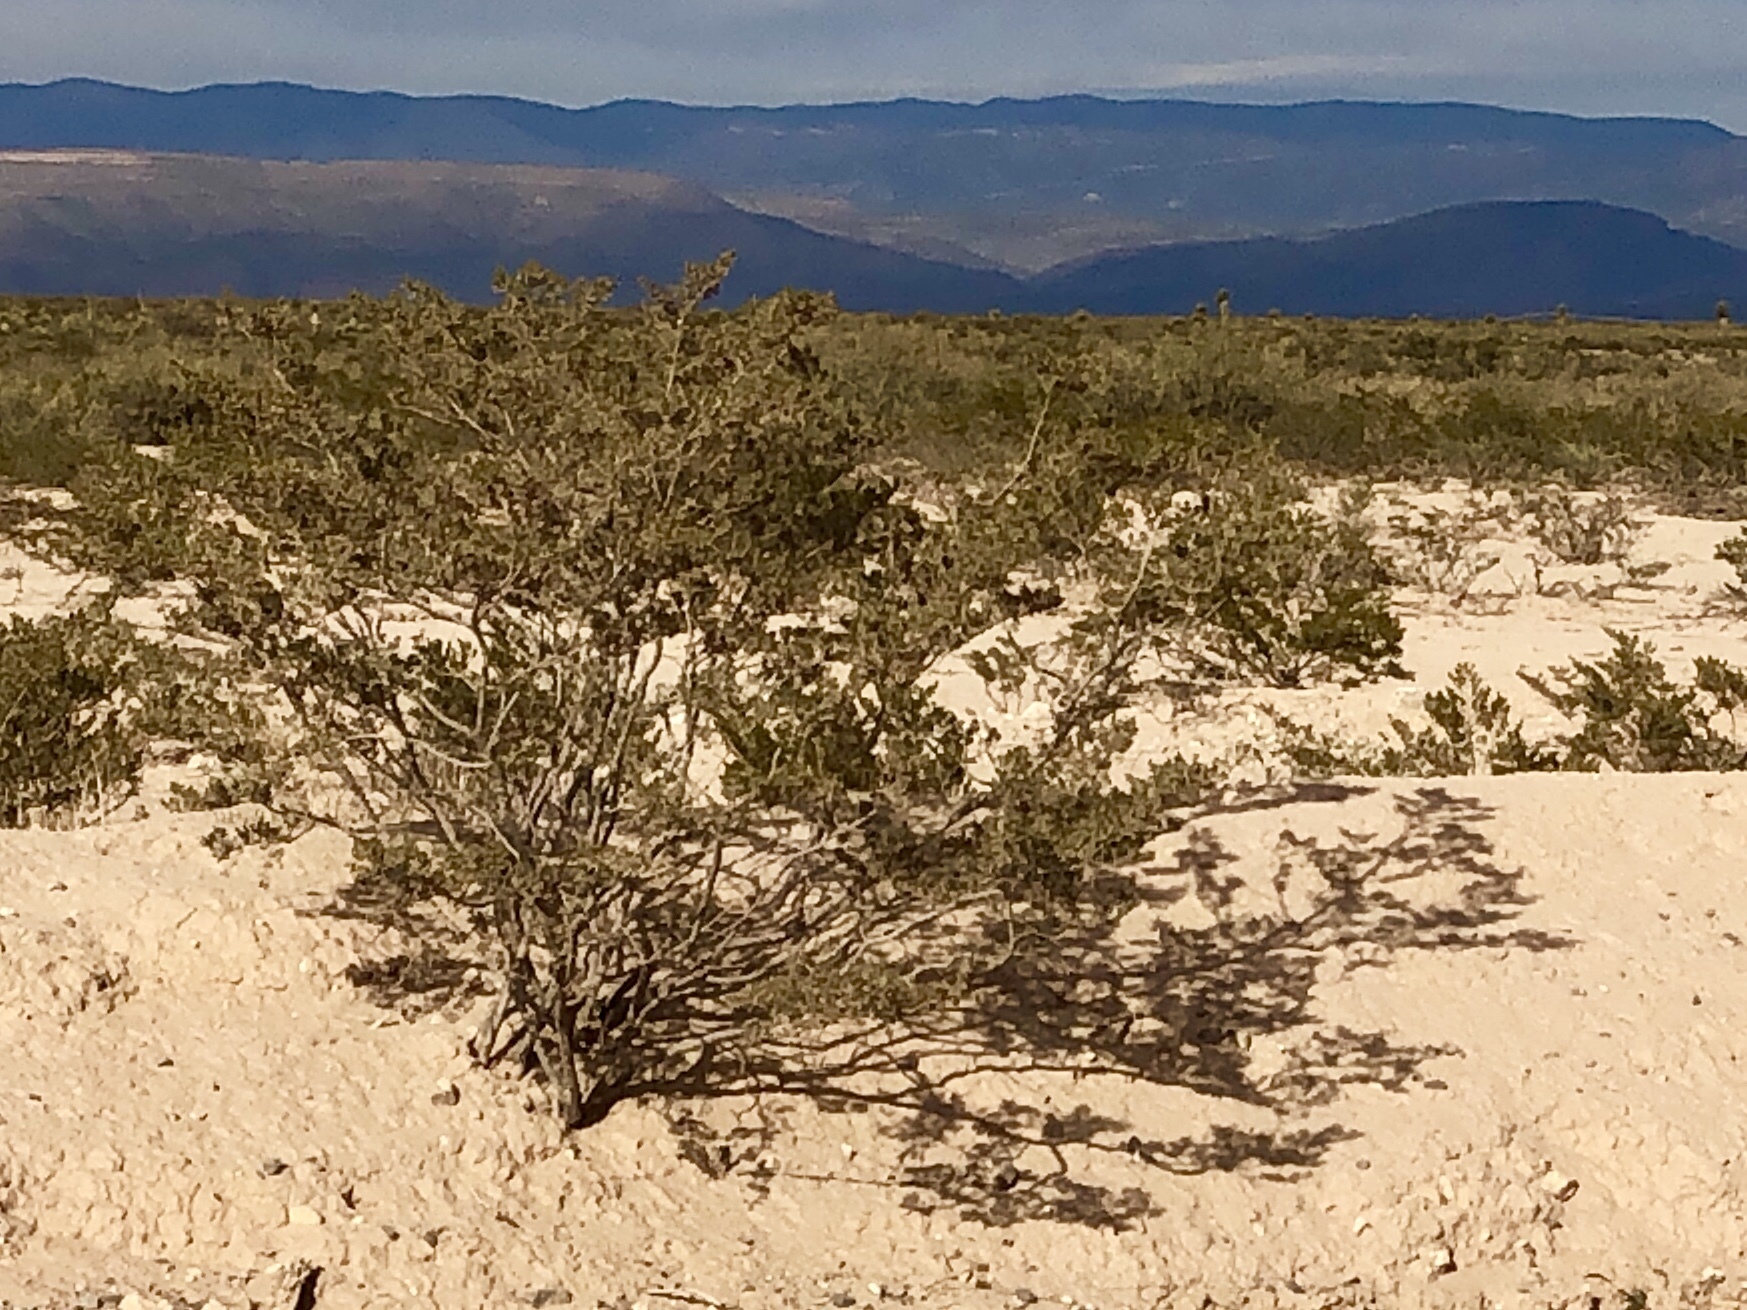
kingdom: Plantae
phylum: Tracheophyta
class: Magnoliopsida
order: Zygophyllales
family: Zygophyllaceae
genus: Larrea
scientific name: Larrea tridentata
